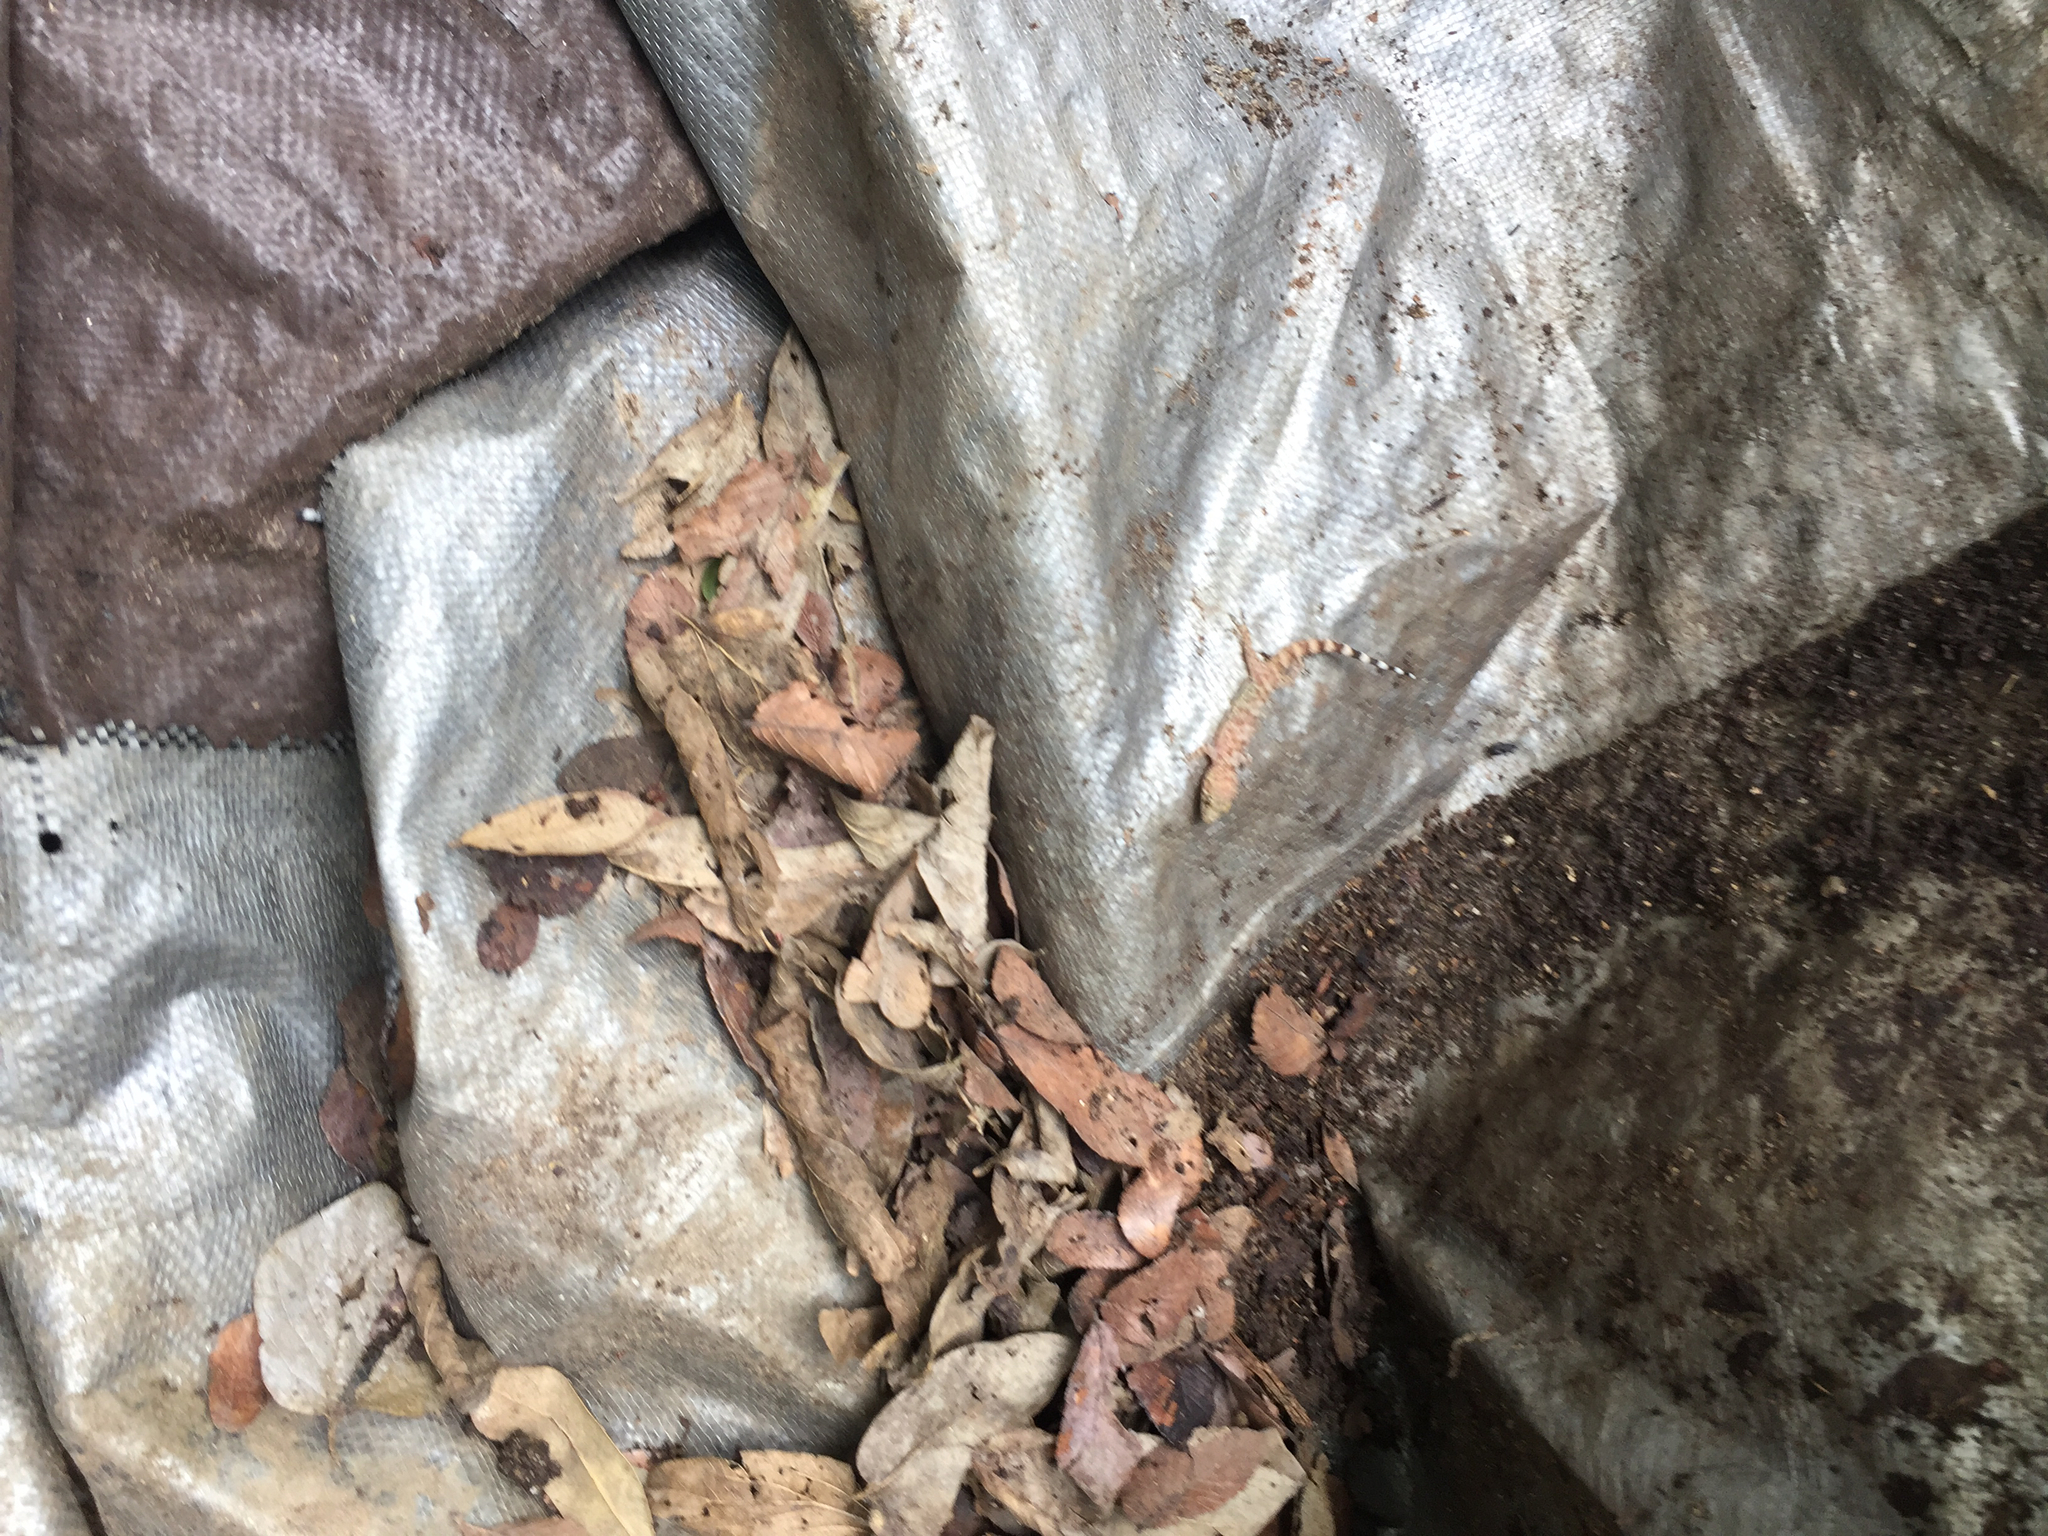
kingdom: Animalia
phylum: Chordata
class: Squamata
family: Gekkonidae
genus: Hemidactylus
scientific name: Hemidactylus turcicus
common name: Turkish gecko
